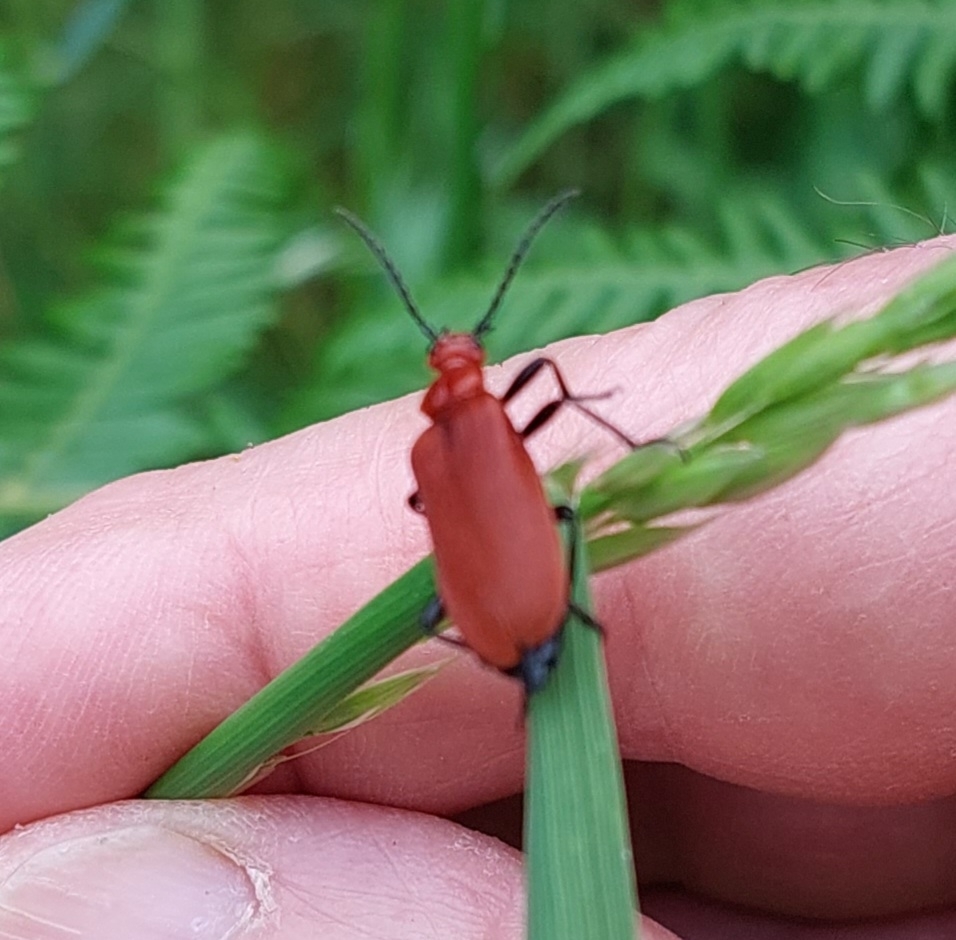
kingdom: Animalia
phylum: Arthropoda
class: Insecta
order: Coleoptera
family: Pyrochroidae
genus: Pyrochroa
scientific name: Pyrochroa serraticornis
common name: Red-headed cardinal beetle
